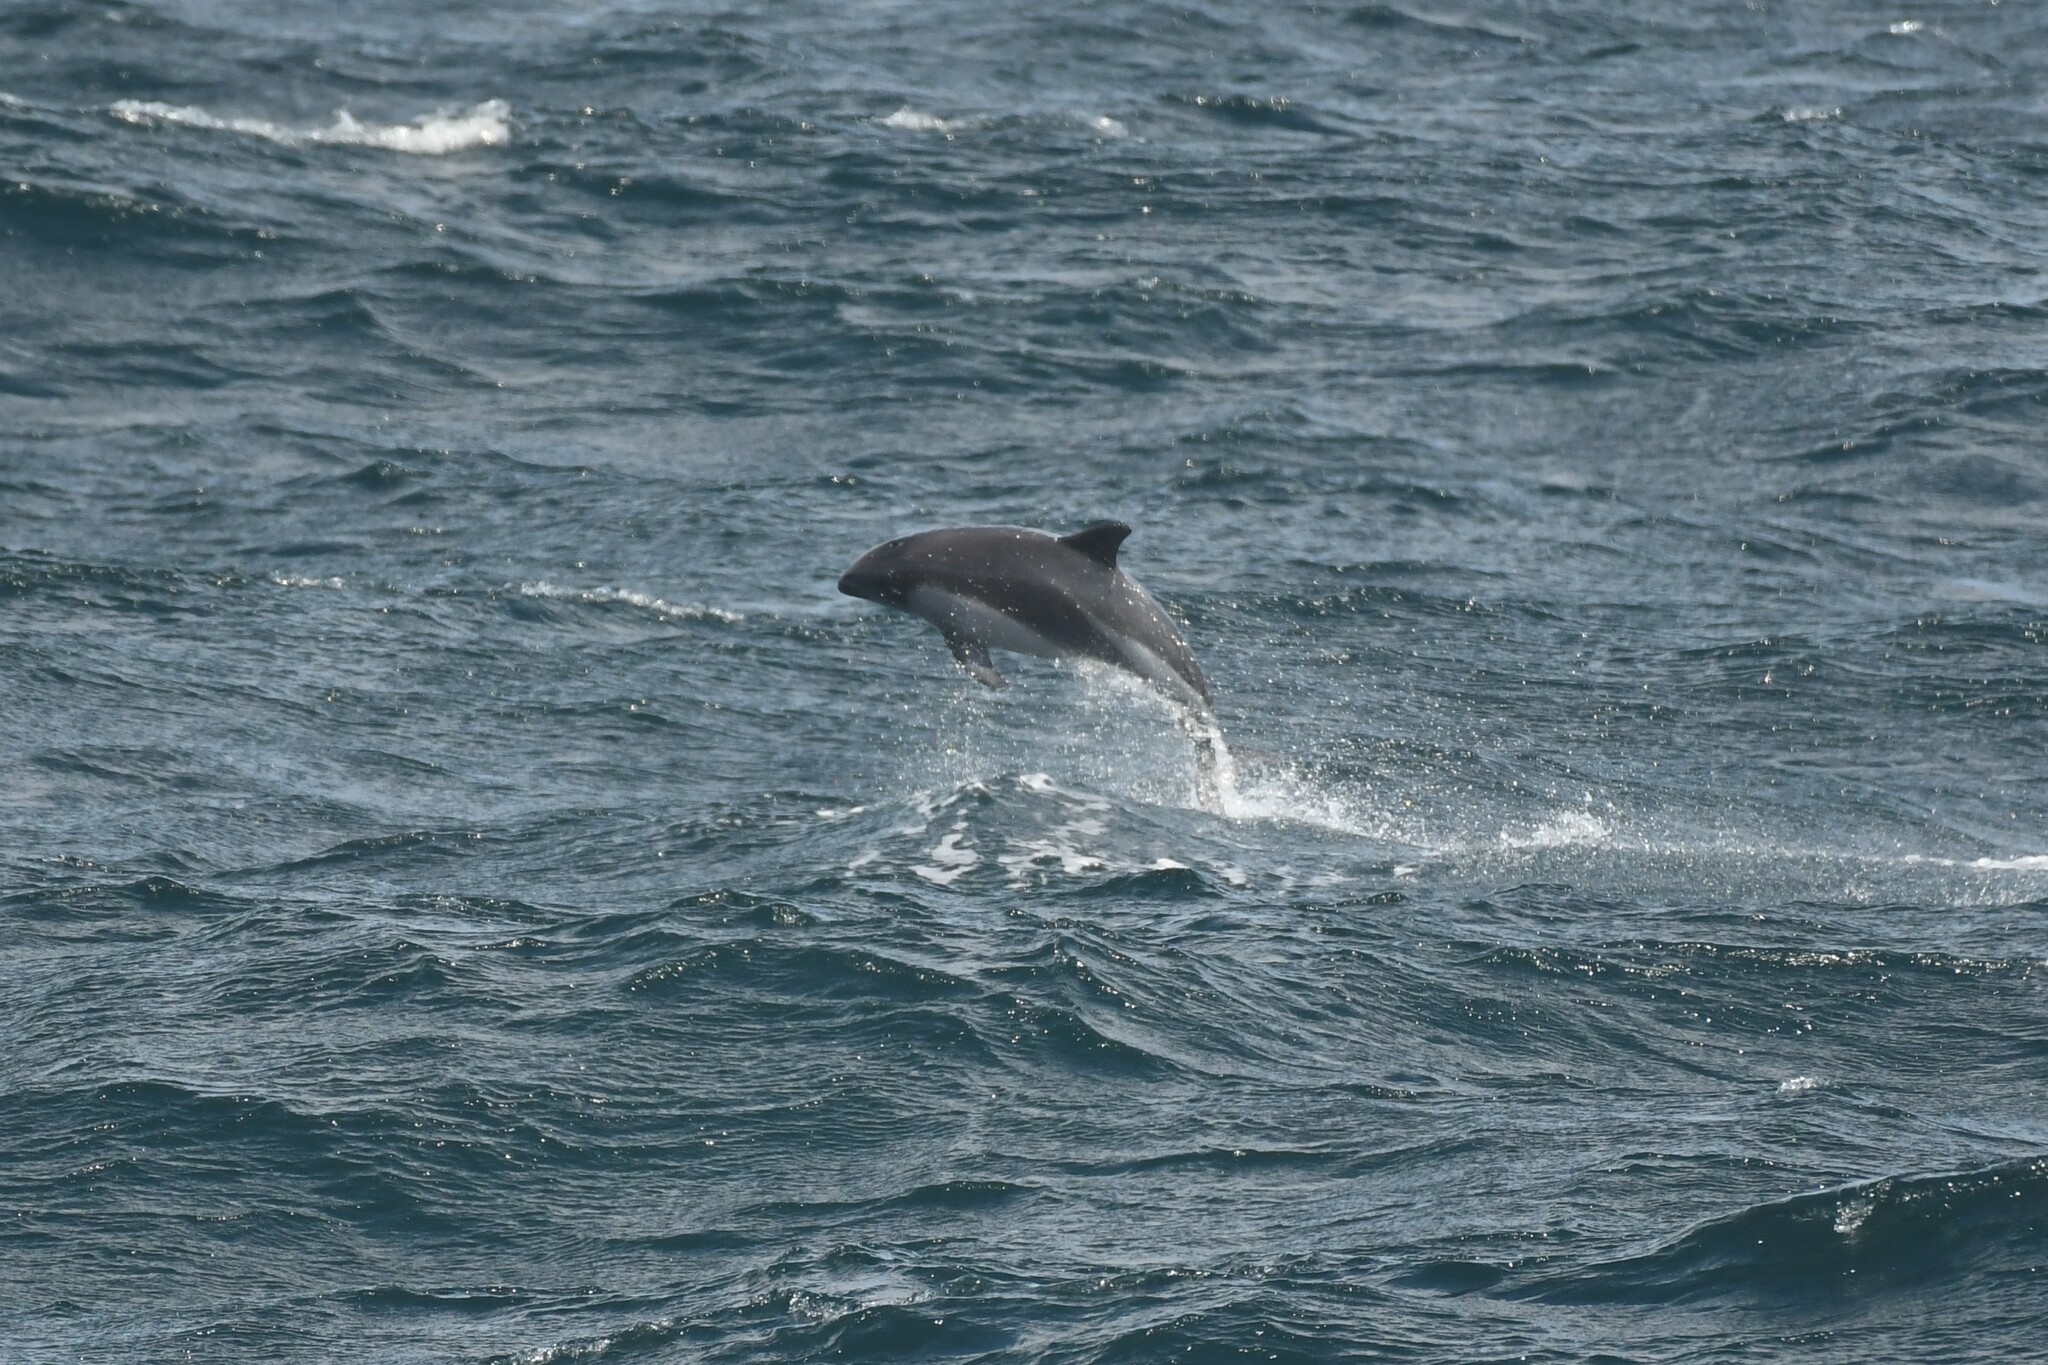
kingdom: Animalia
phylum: Chordata
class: Mammalia
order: Cetacea
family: Delphinidae
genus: Lagenorhynchus
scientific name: Lagenorhynchus australis
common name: Peale's dolphin
